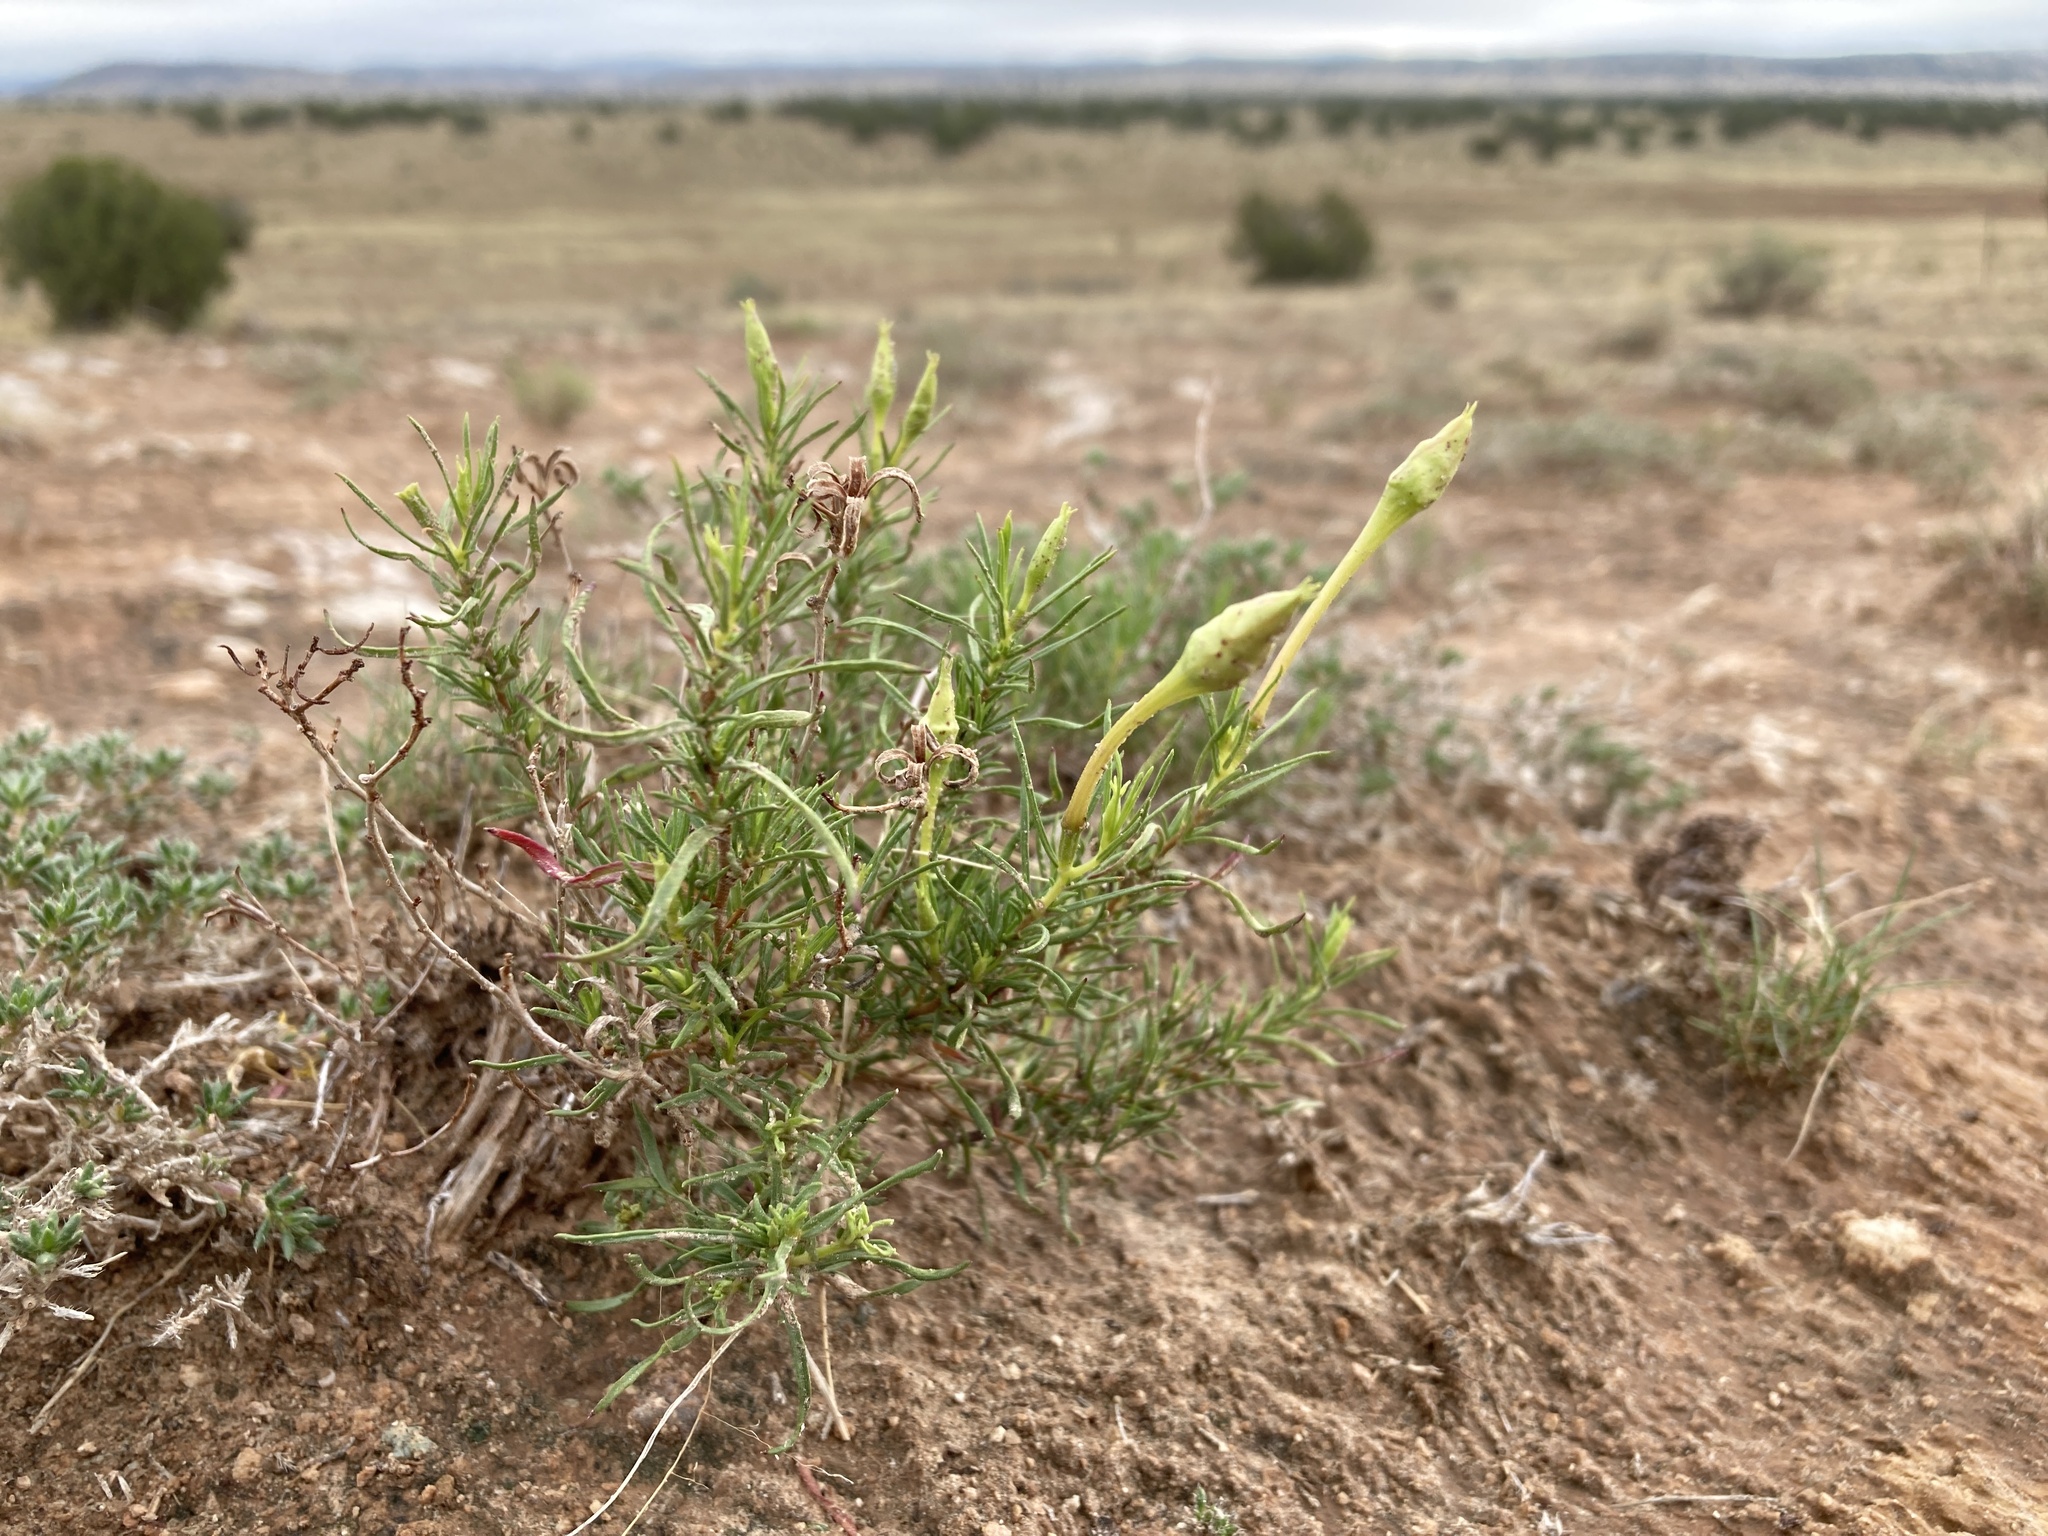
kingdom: Plantae
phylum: Tracheophyta
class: Magnoliopsida
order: Myrtales
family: Onagraceae
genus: Oenothera
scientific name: Oenothera hartwegii
